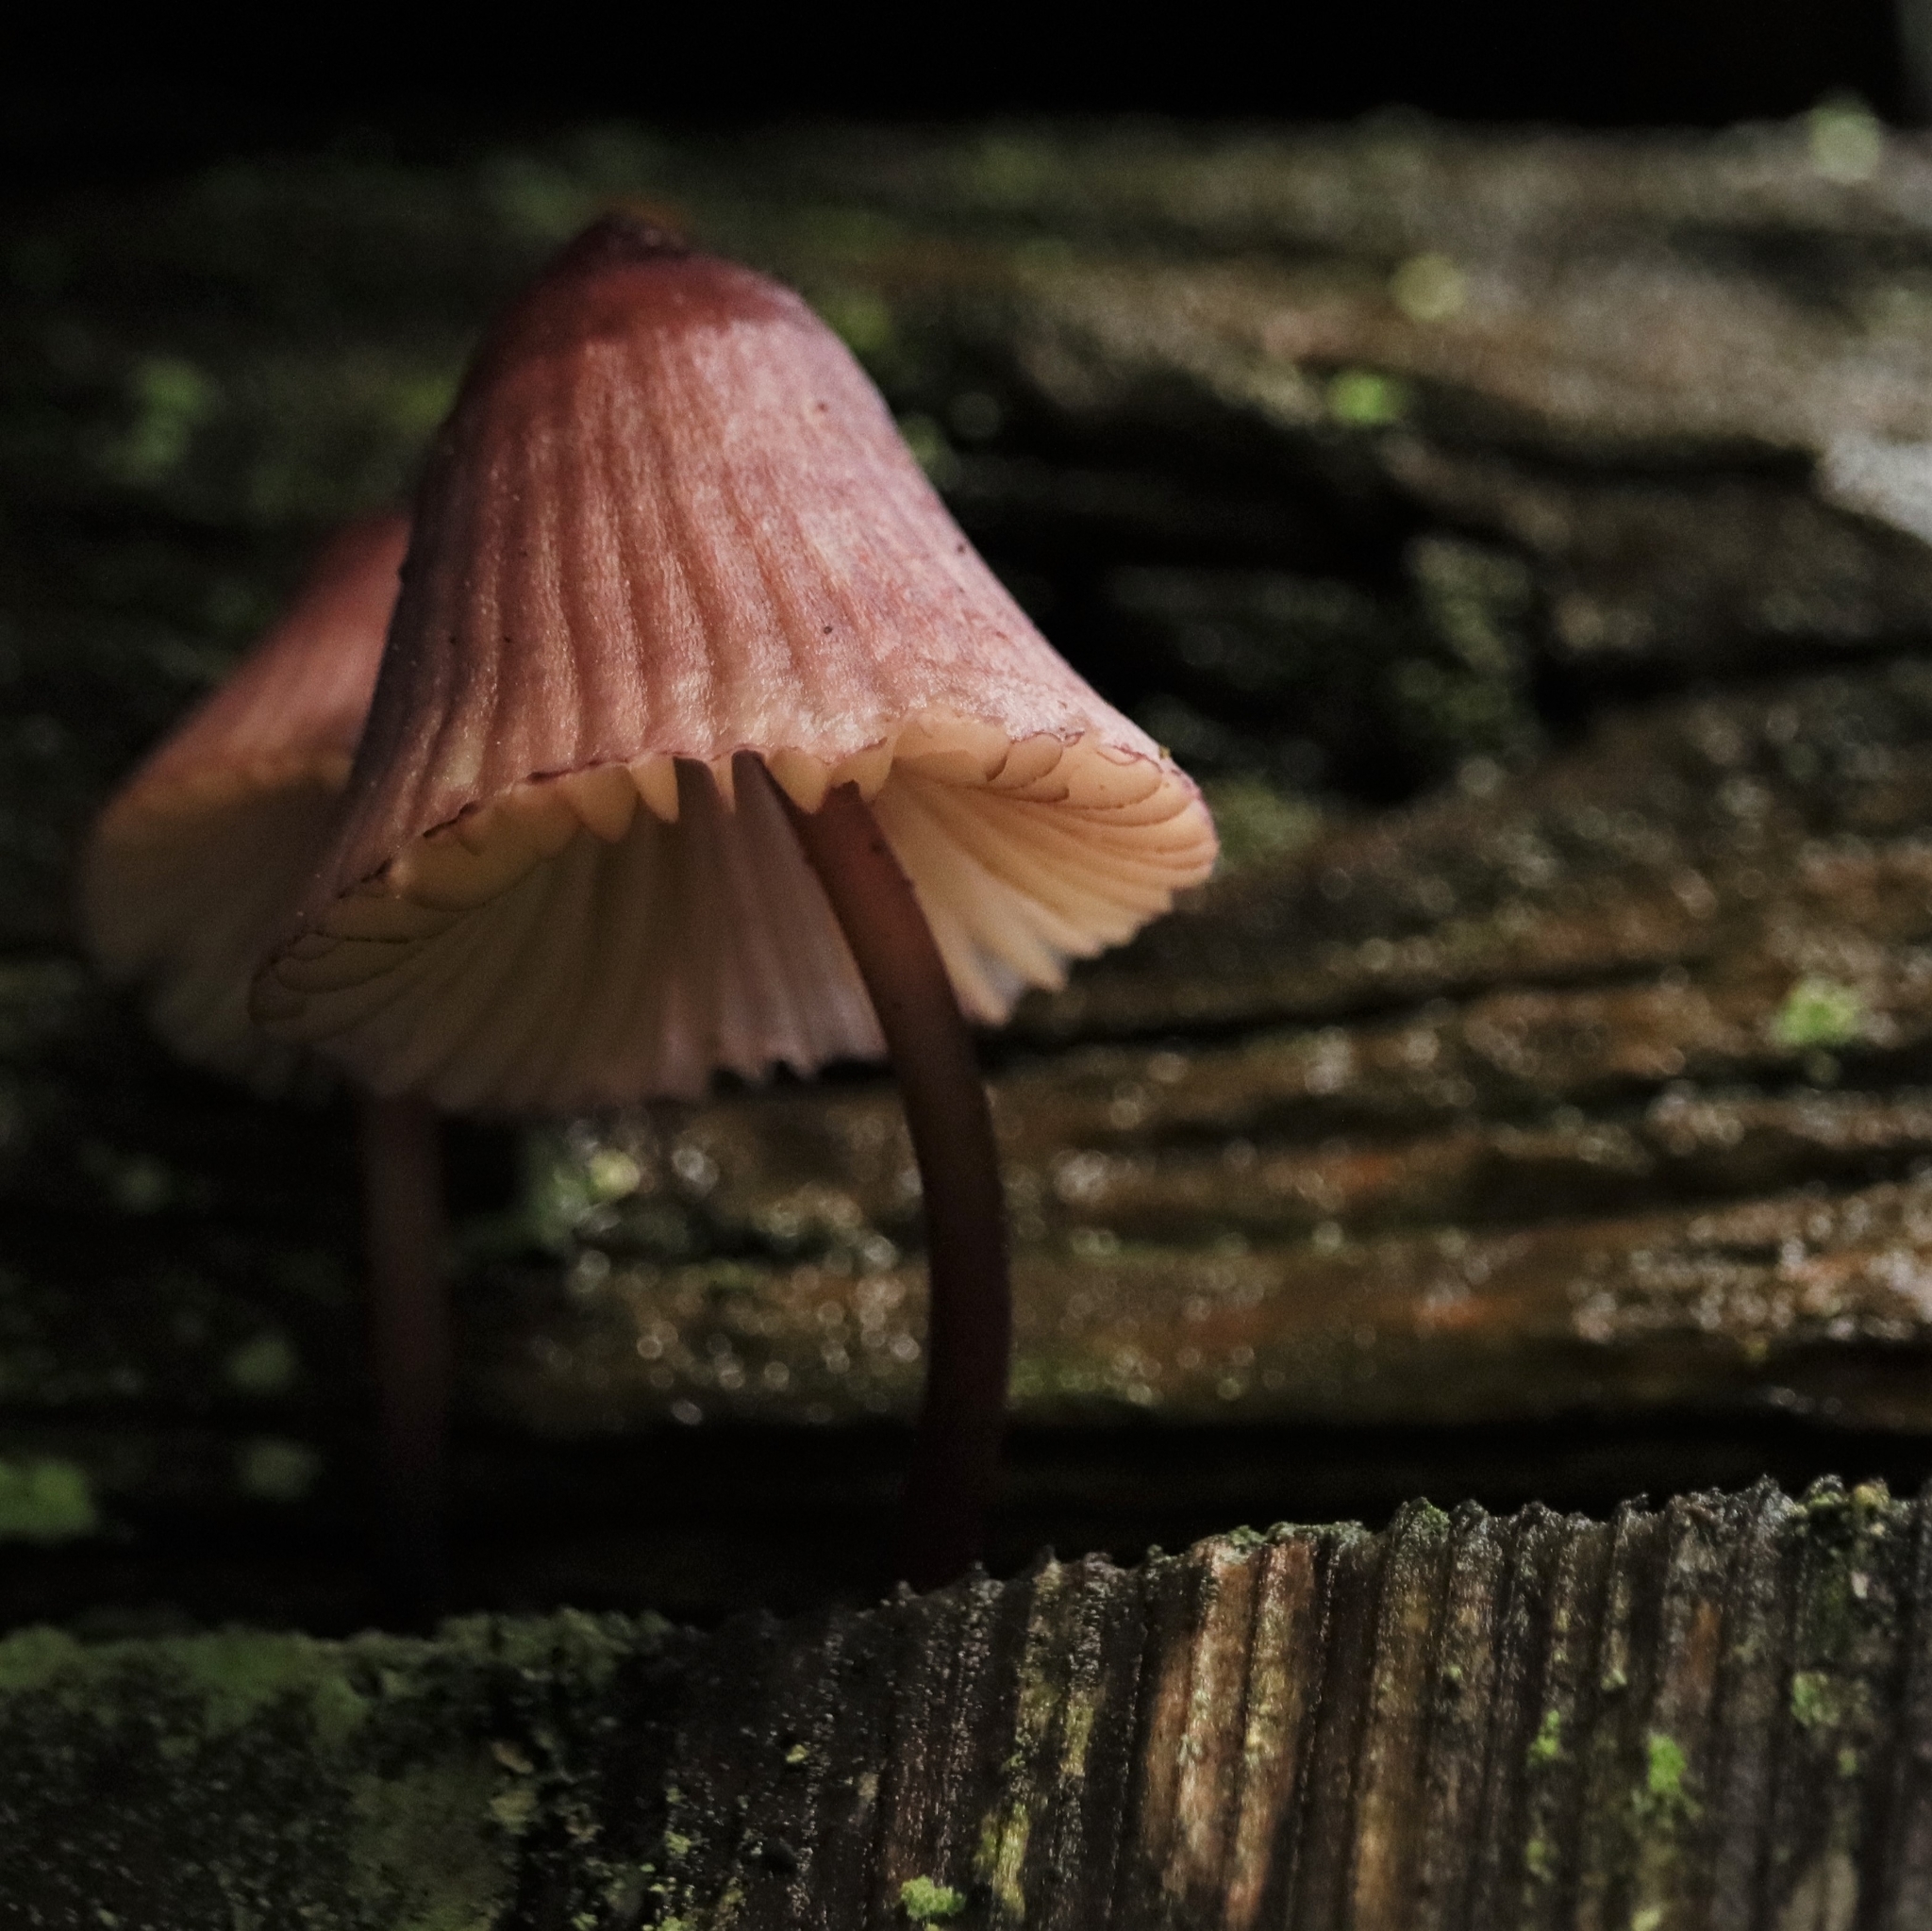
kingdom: Fungi
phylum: Basidiomycota
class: Agaricomycetes
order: Agaricales
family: Mycenaceae
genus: Mycena
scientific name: Mycena haematopus
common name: Burgundydrop bonnet
